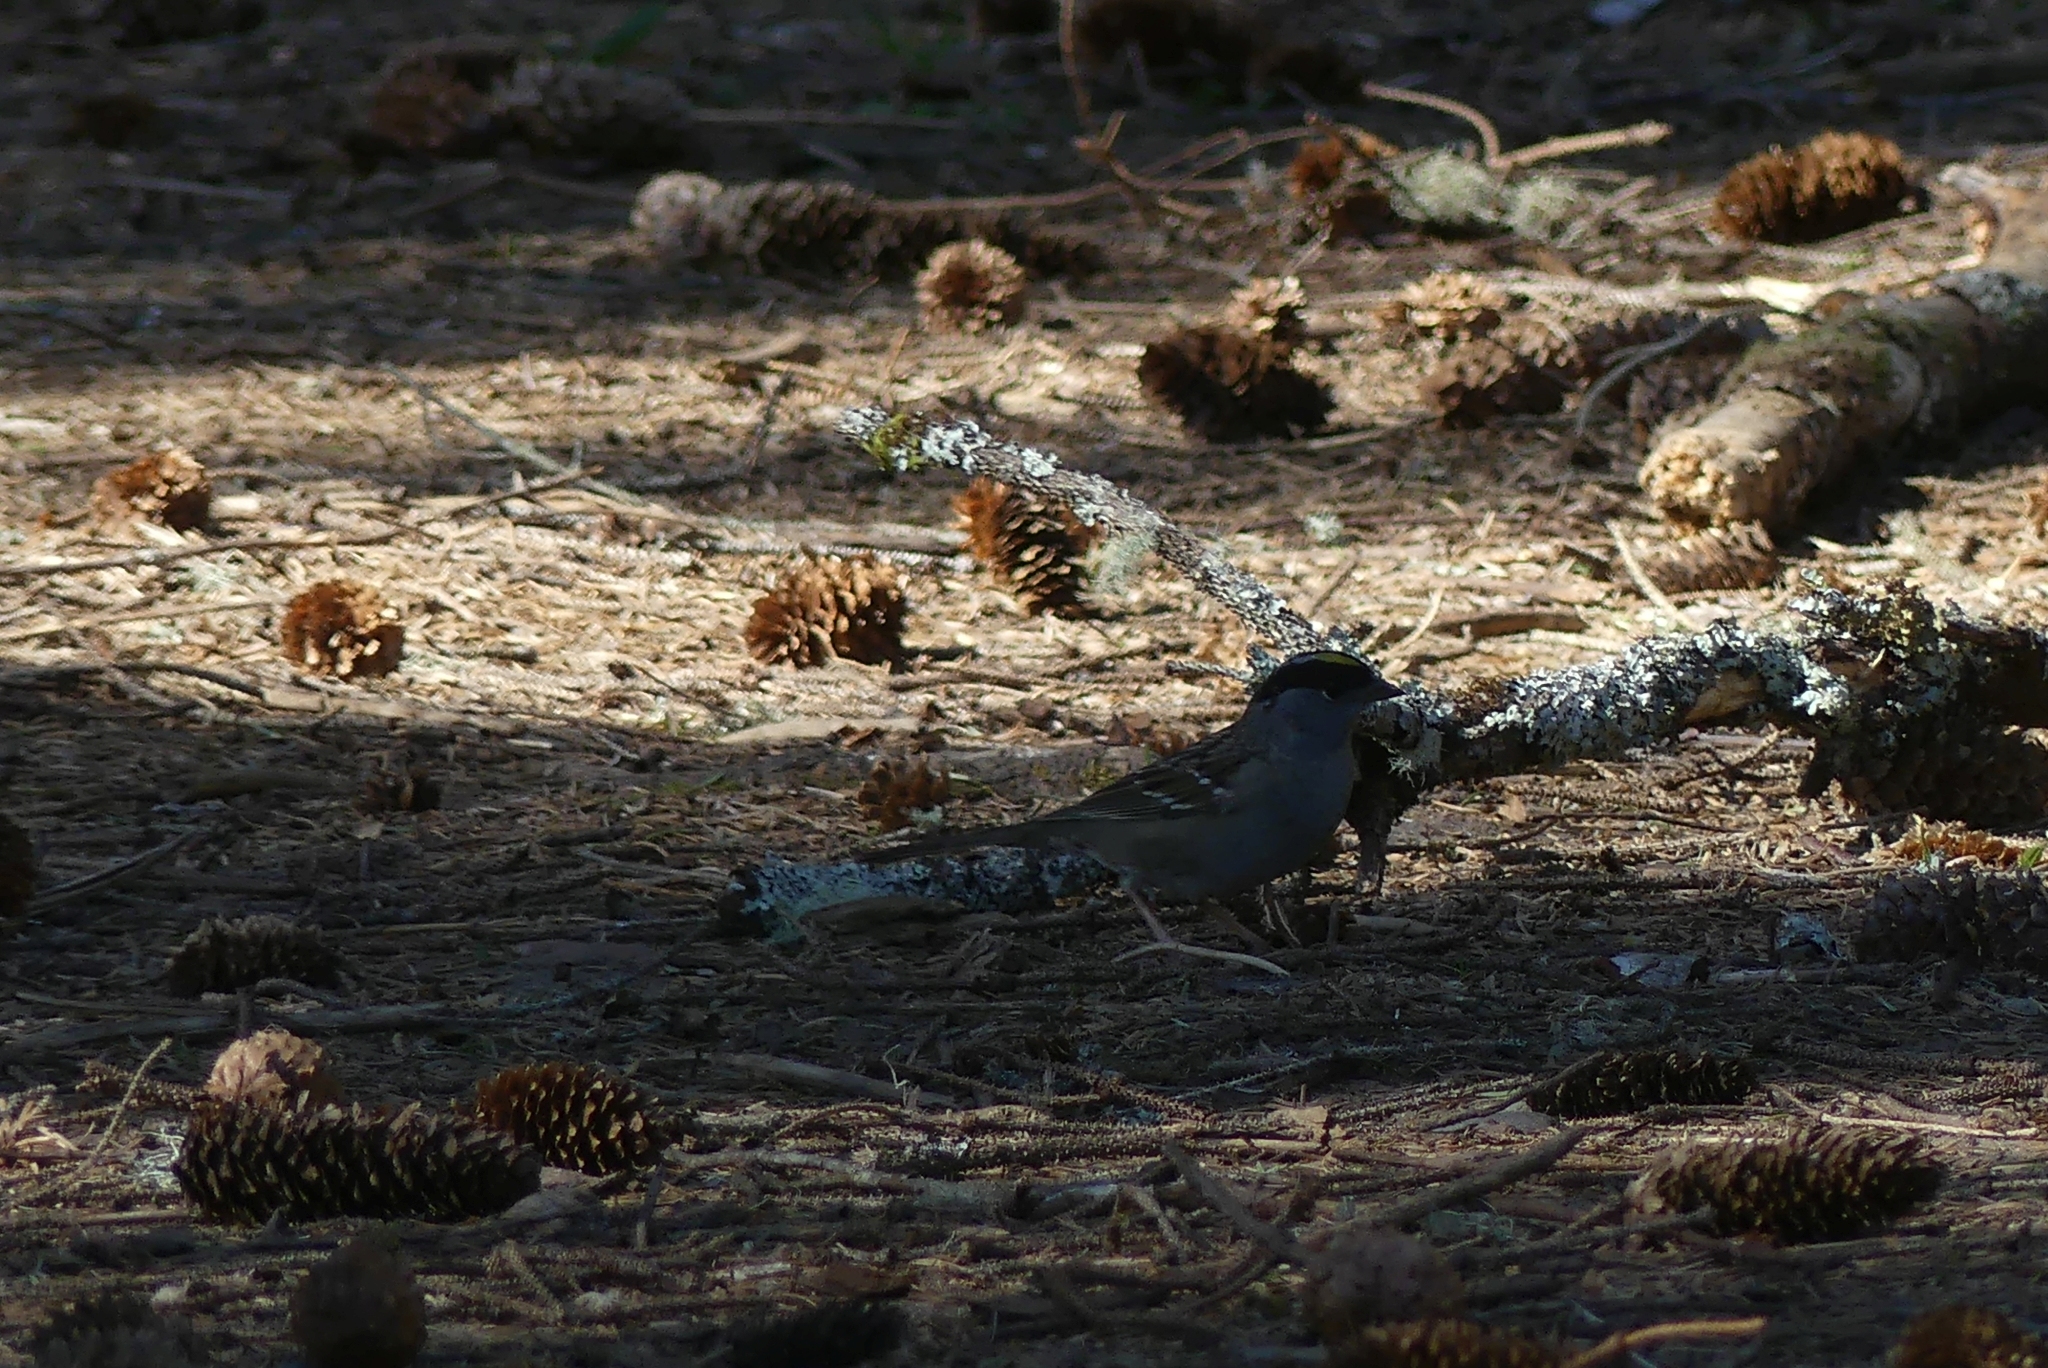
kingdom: Animalia
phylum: Chordata
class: Aves
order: Passeriformes
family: Passerellidae
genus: Zonotrichia
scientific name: Zonotrichia atricapilla
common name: Golden-crowned sparrow
